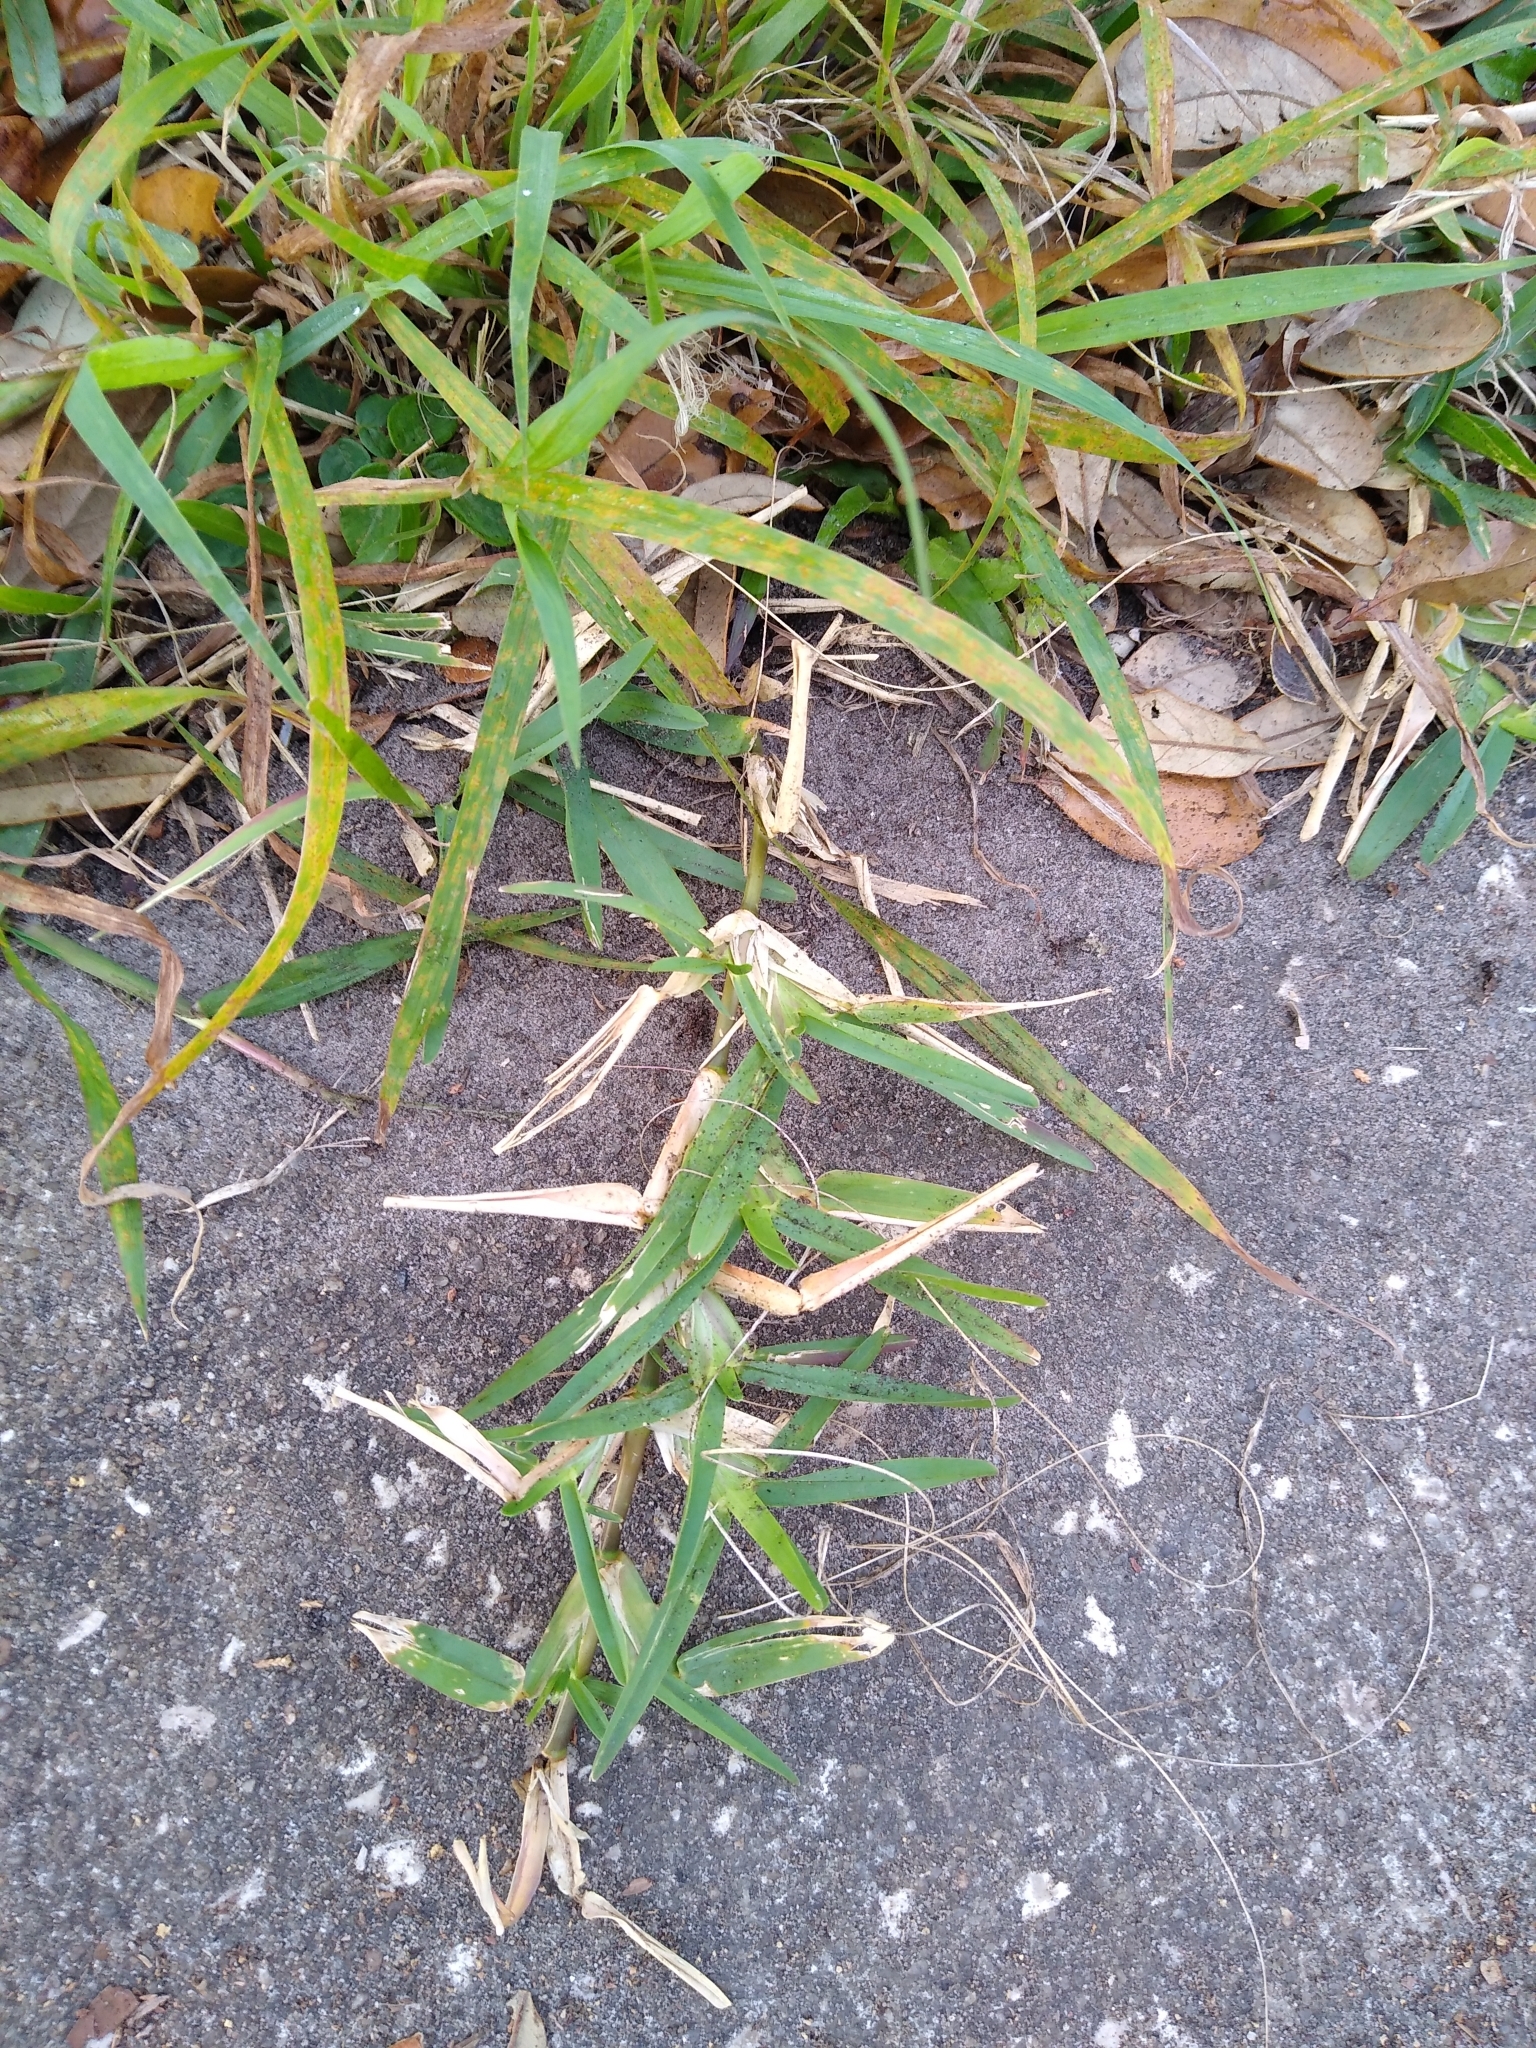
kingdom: Plantae
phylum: Tracheophyta
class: Liliopsida
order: Poales
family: Poaceae
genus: Stenotaphrum
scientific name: Stenotaphrum secundatum
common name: St. augustine grass
